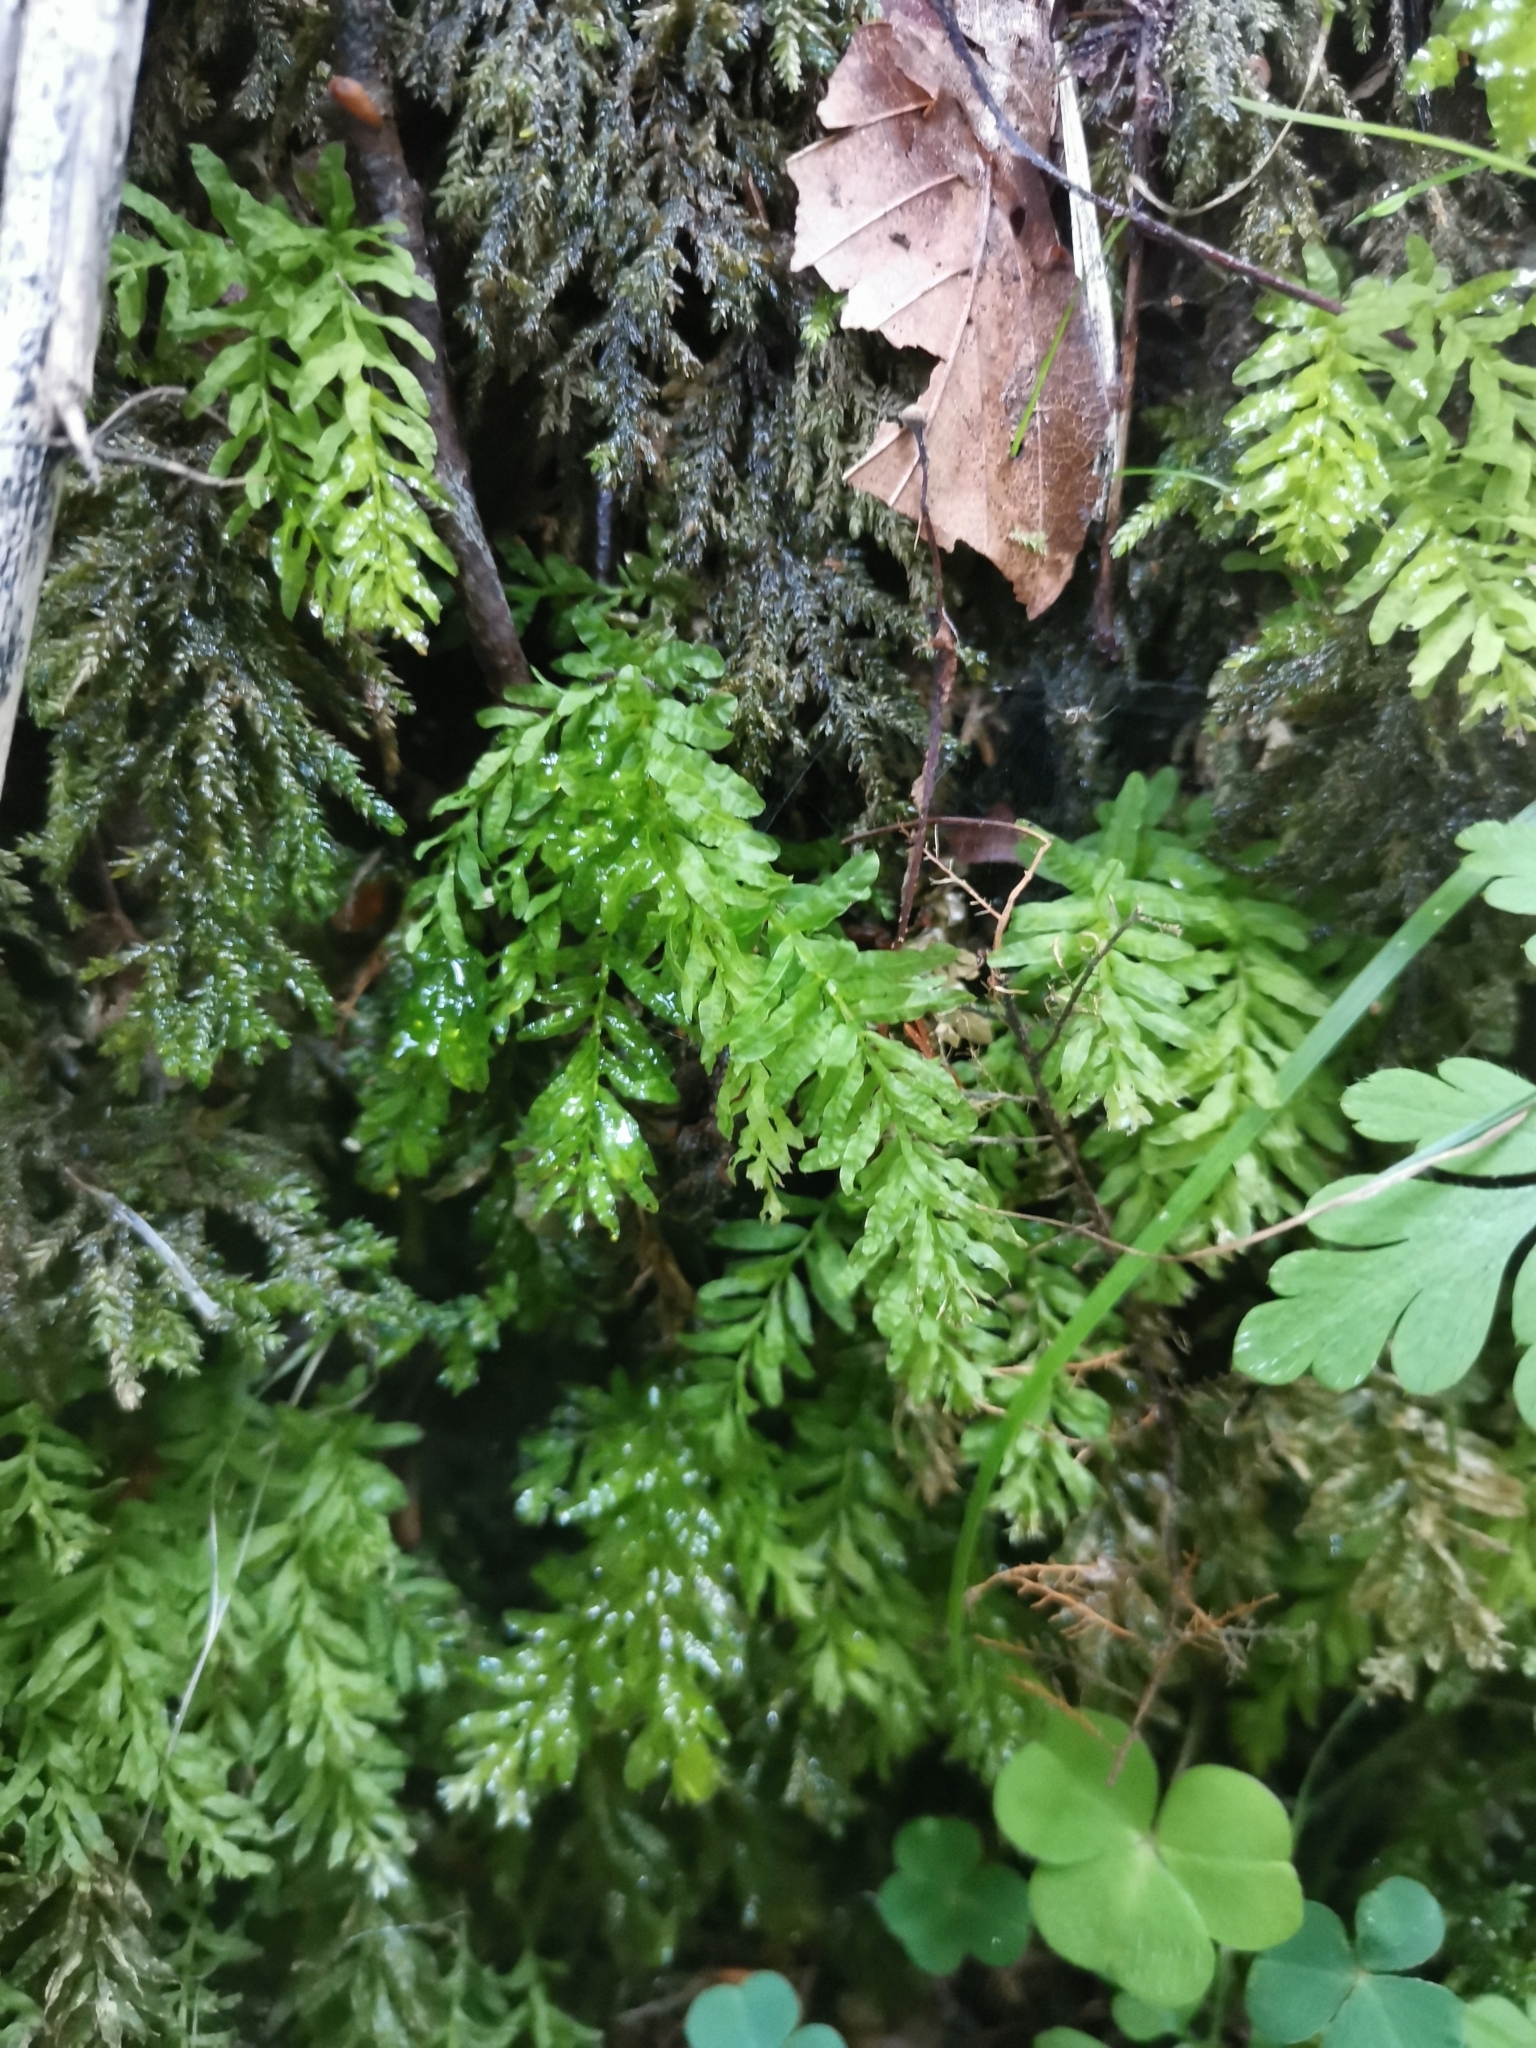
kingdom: Plantae
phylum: Bryophyta
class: Bryopsida
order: Bryales
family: Mniaceae
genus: Plagiomnium
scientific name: Plagiomnium undulatum
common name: Hart's-tongue thyme-moss
